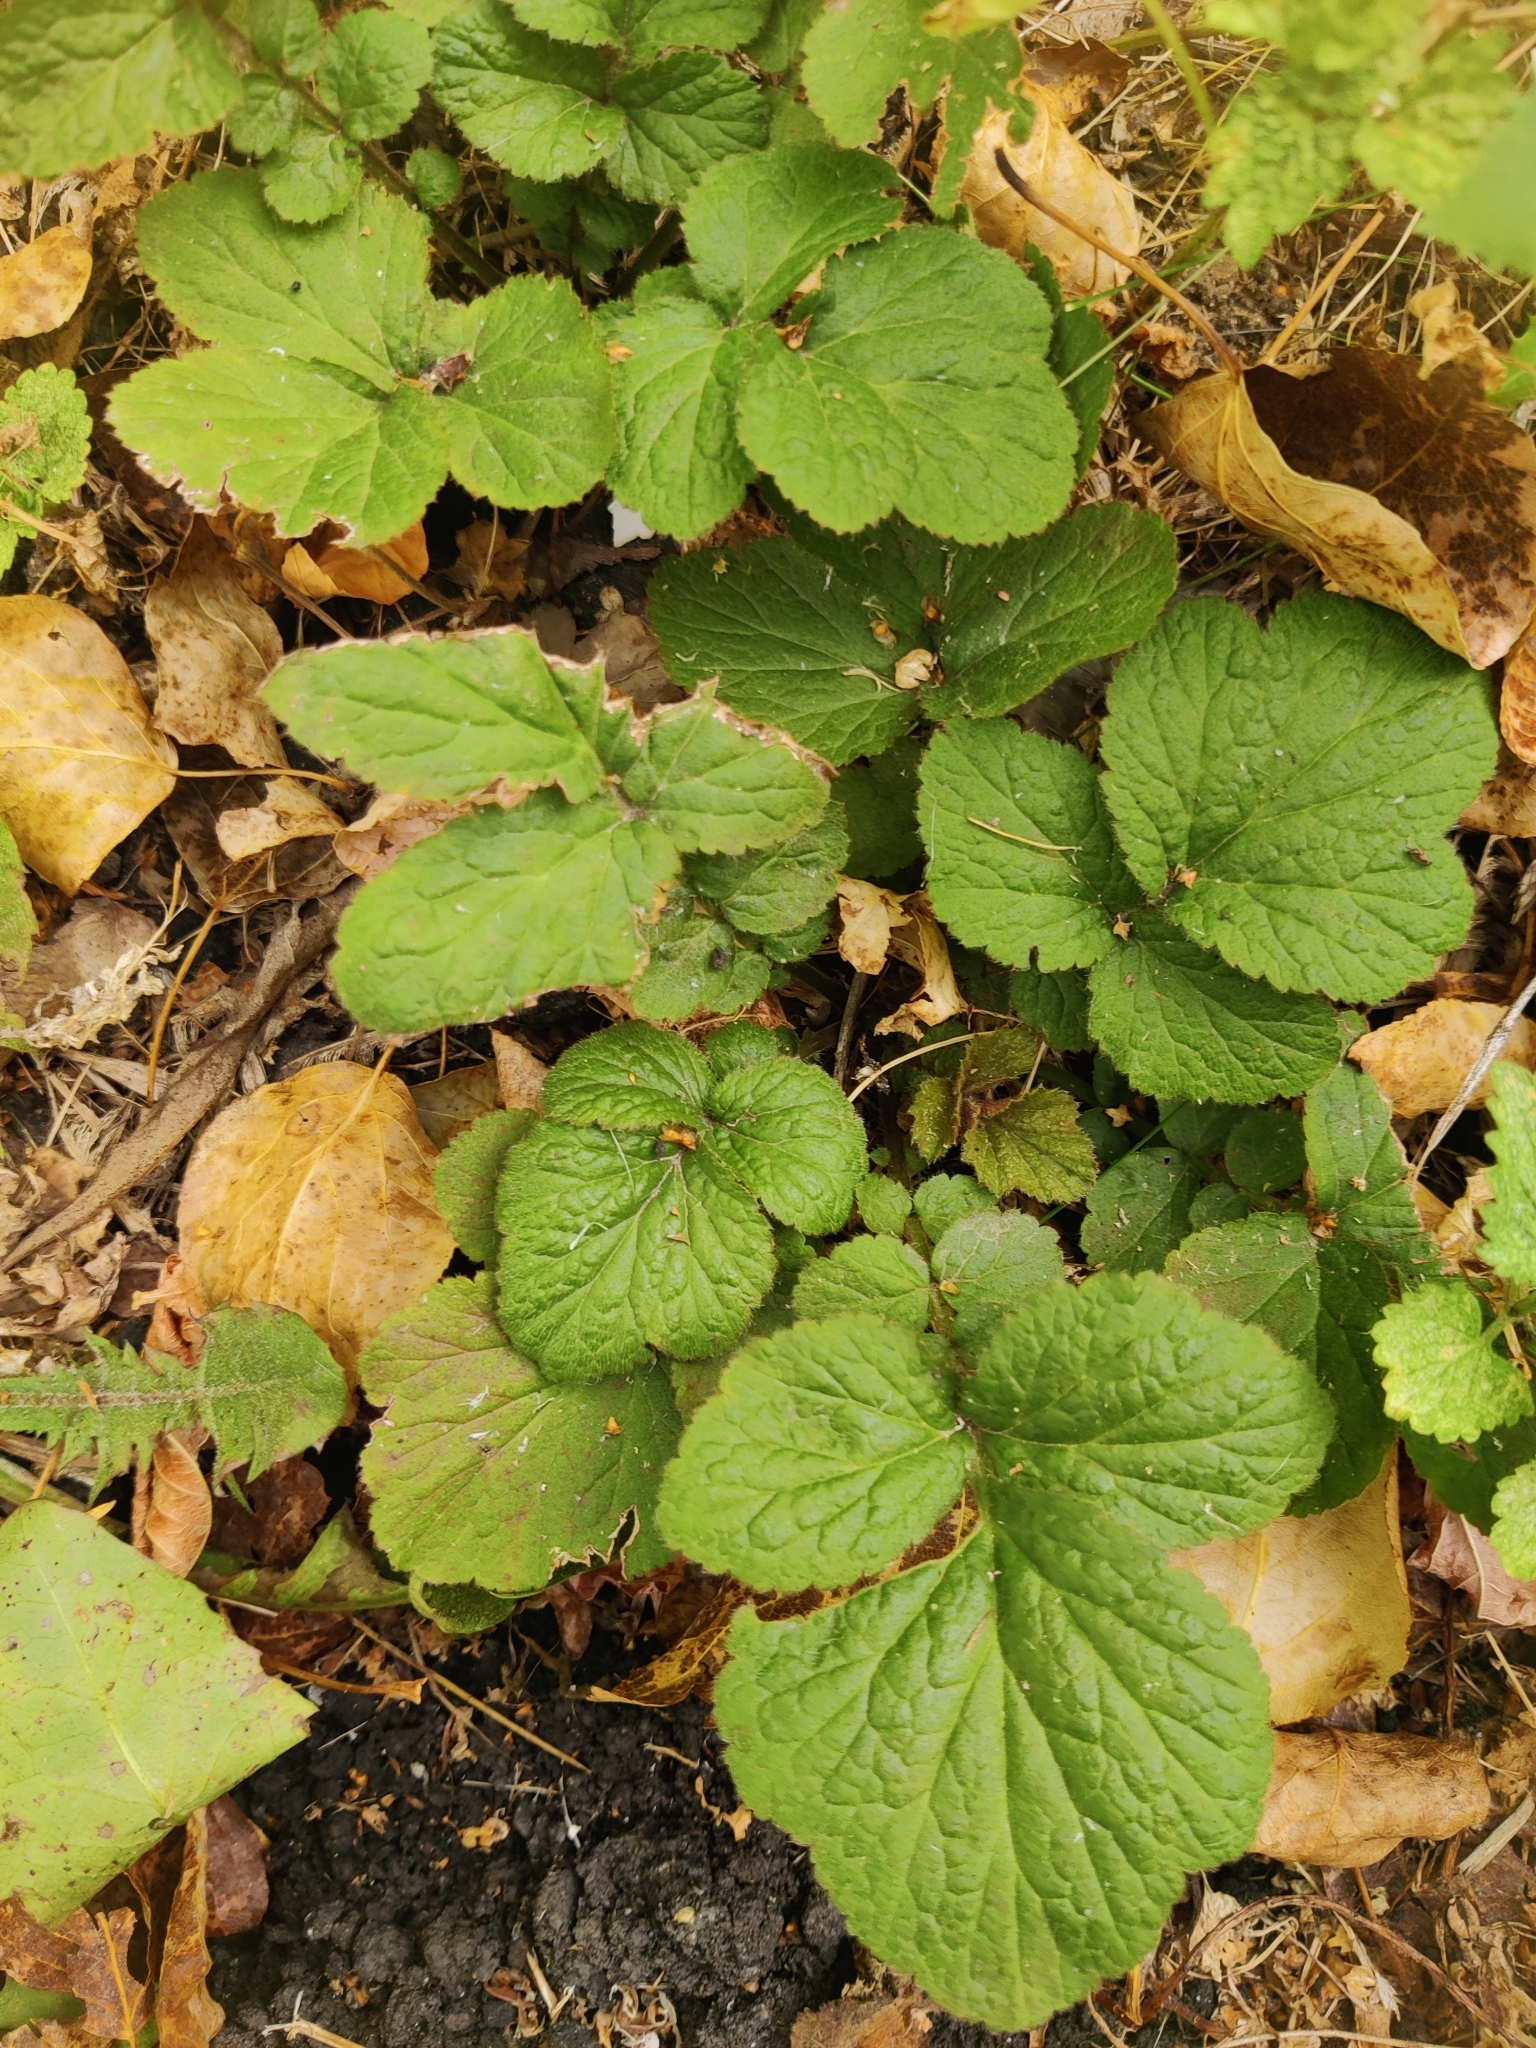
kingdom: Plantae
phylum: Tracheophyta
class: Magnoliopsida
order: Rosales
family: Rosaceae
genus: Geum
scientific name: Geum urbanum
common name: Wood avens
